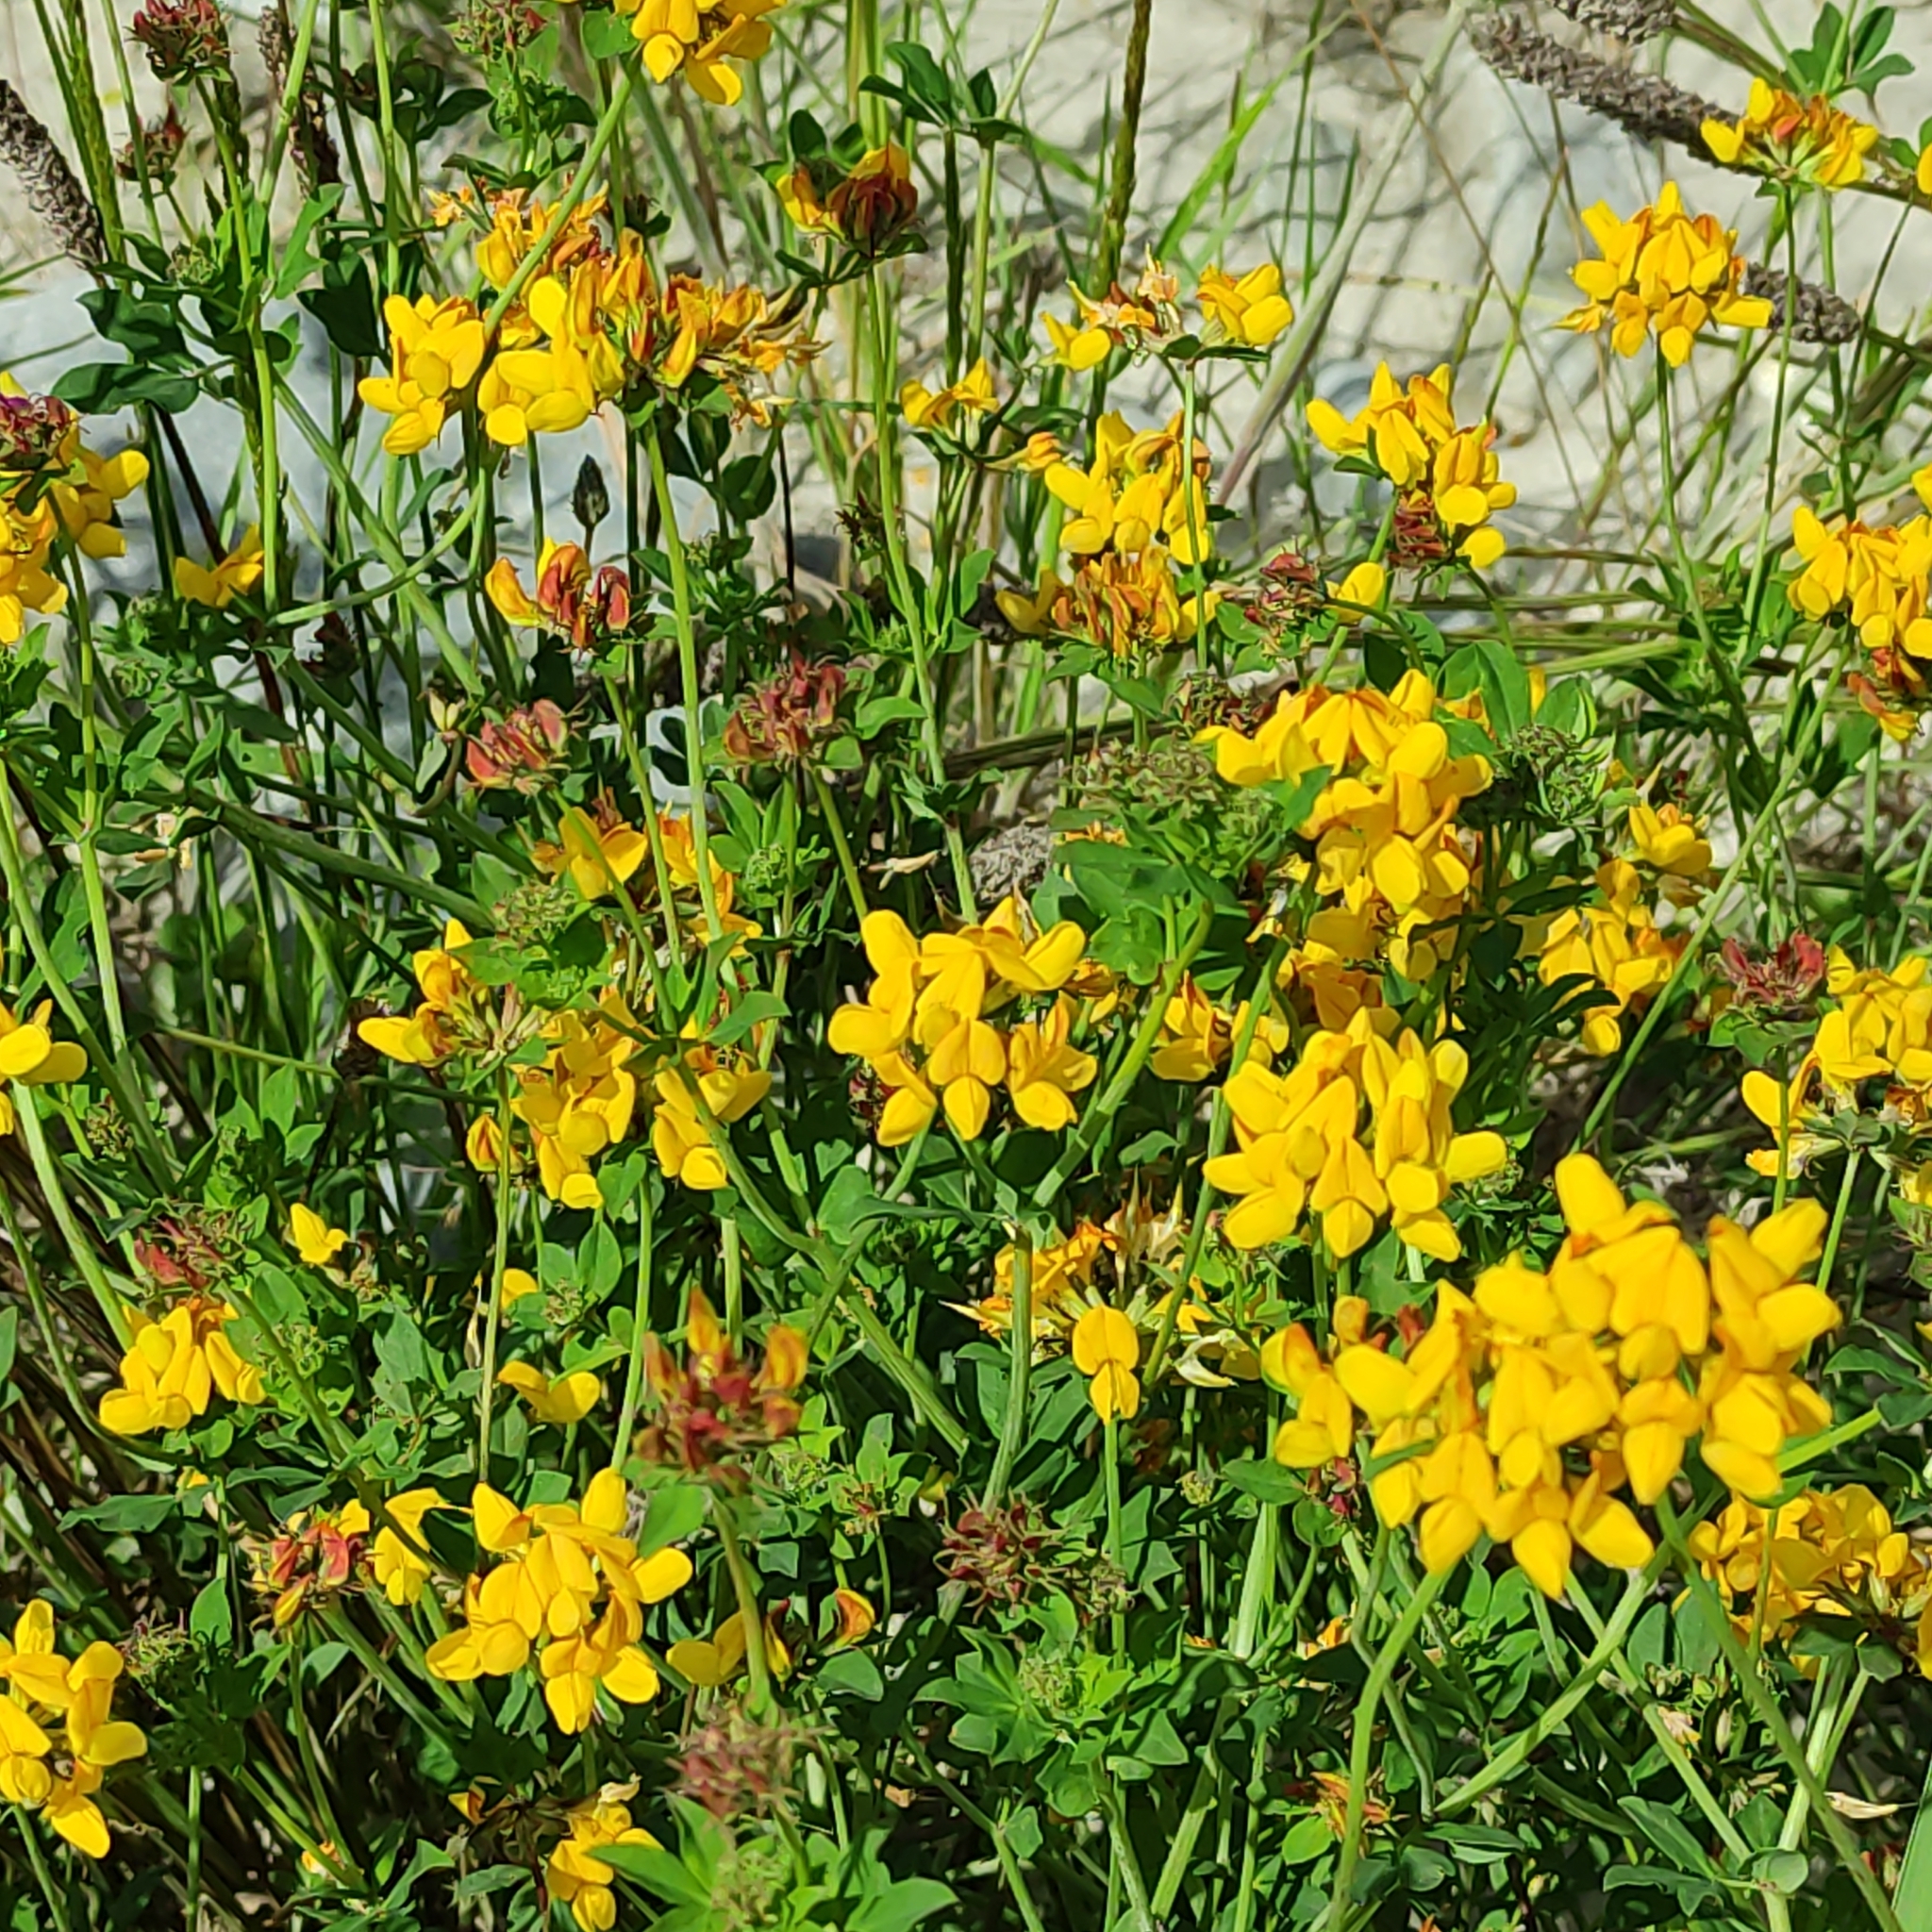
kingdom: Plantae
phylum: Tracheophyta
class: Magnoliopsida
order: Fabales
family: Fabaceae
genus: Lotus
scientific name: Lotus pedunculatus
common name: Greater birdsfoot-trefoil
